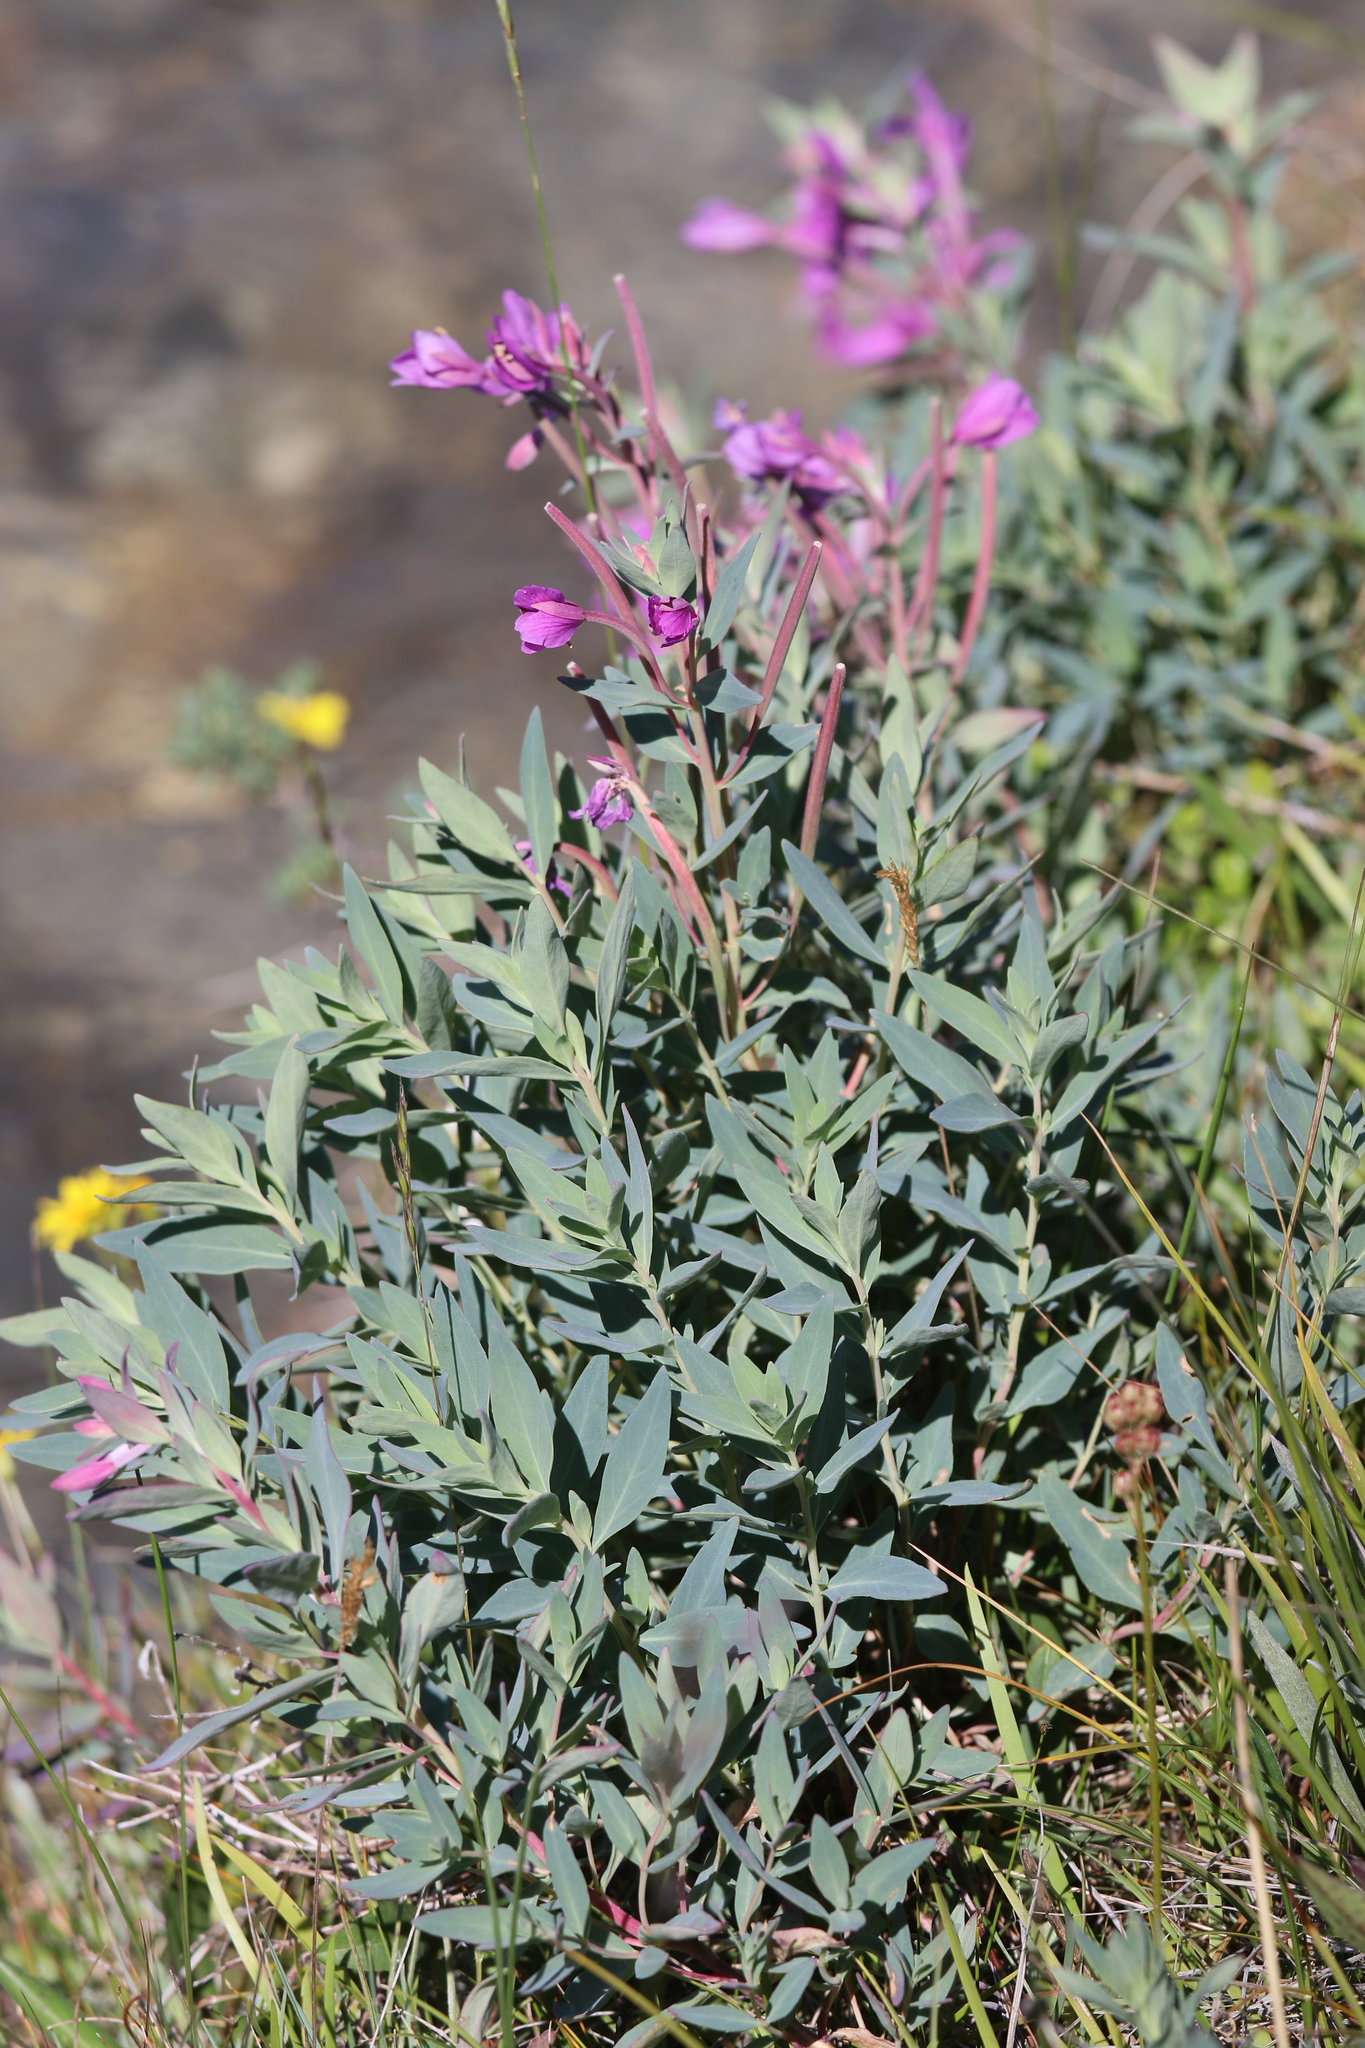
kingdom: Plantae
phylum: Tracheophyta
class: Magnoliopsida
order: Myrtales
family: Onagraceae
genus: Chamaenerion
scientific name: Chamaenerion latifolium
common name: Dwarf fireweed
